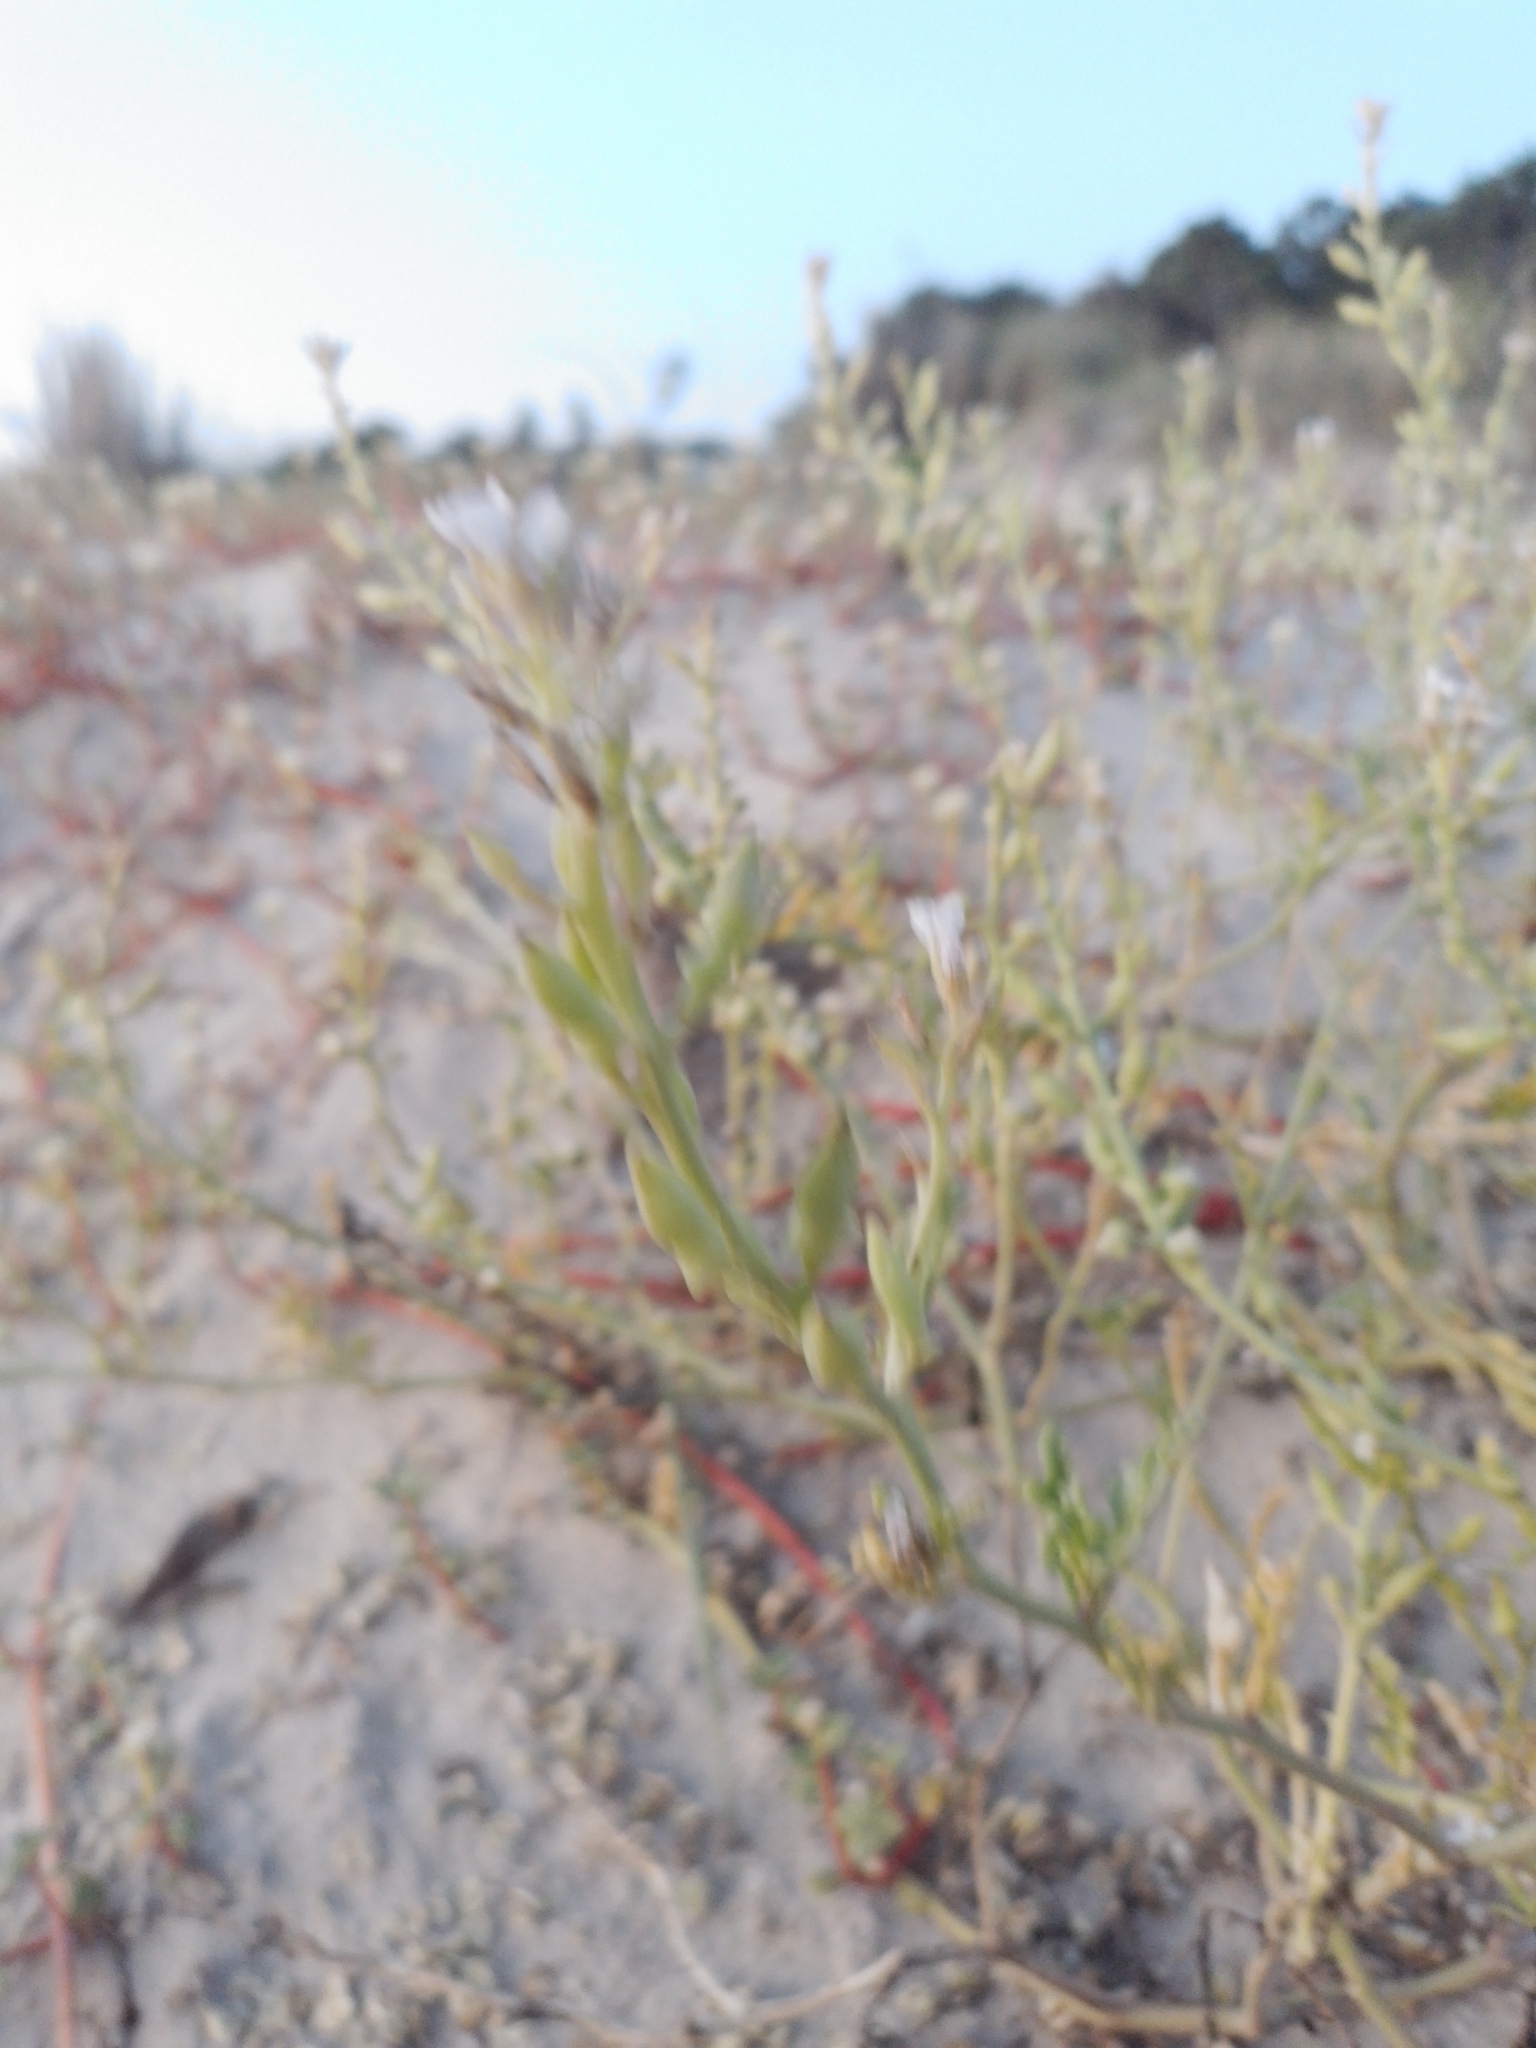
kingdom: Plantae
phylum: Tracheophyta
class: Magnoliopsida
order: Brassicales
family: Brassicaceae
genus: Cakile
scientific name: Cakile maritima
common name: Sea rocket
